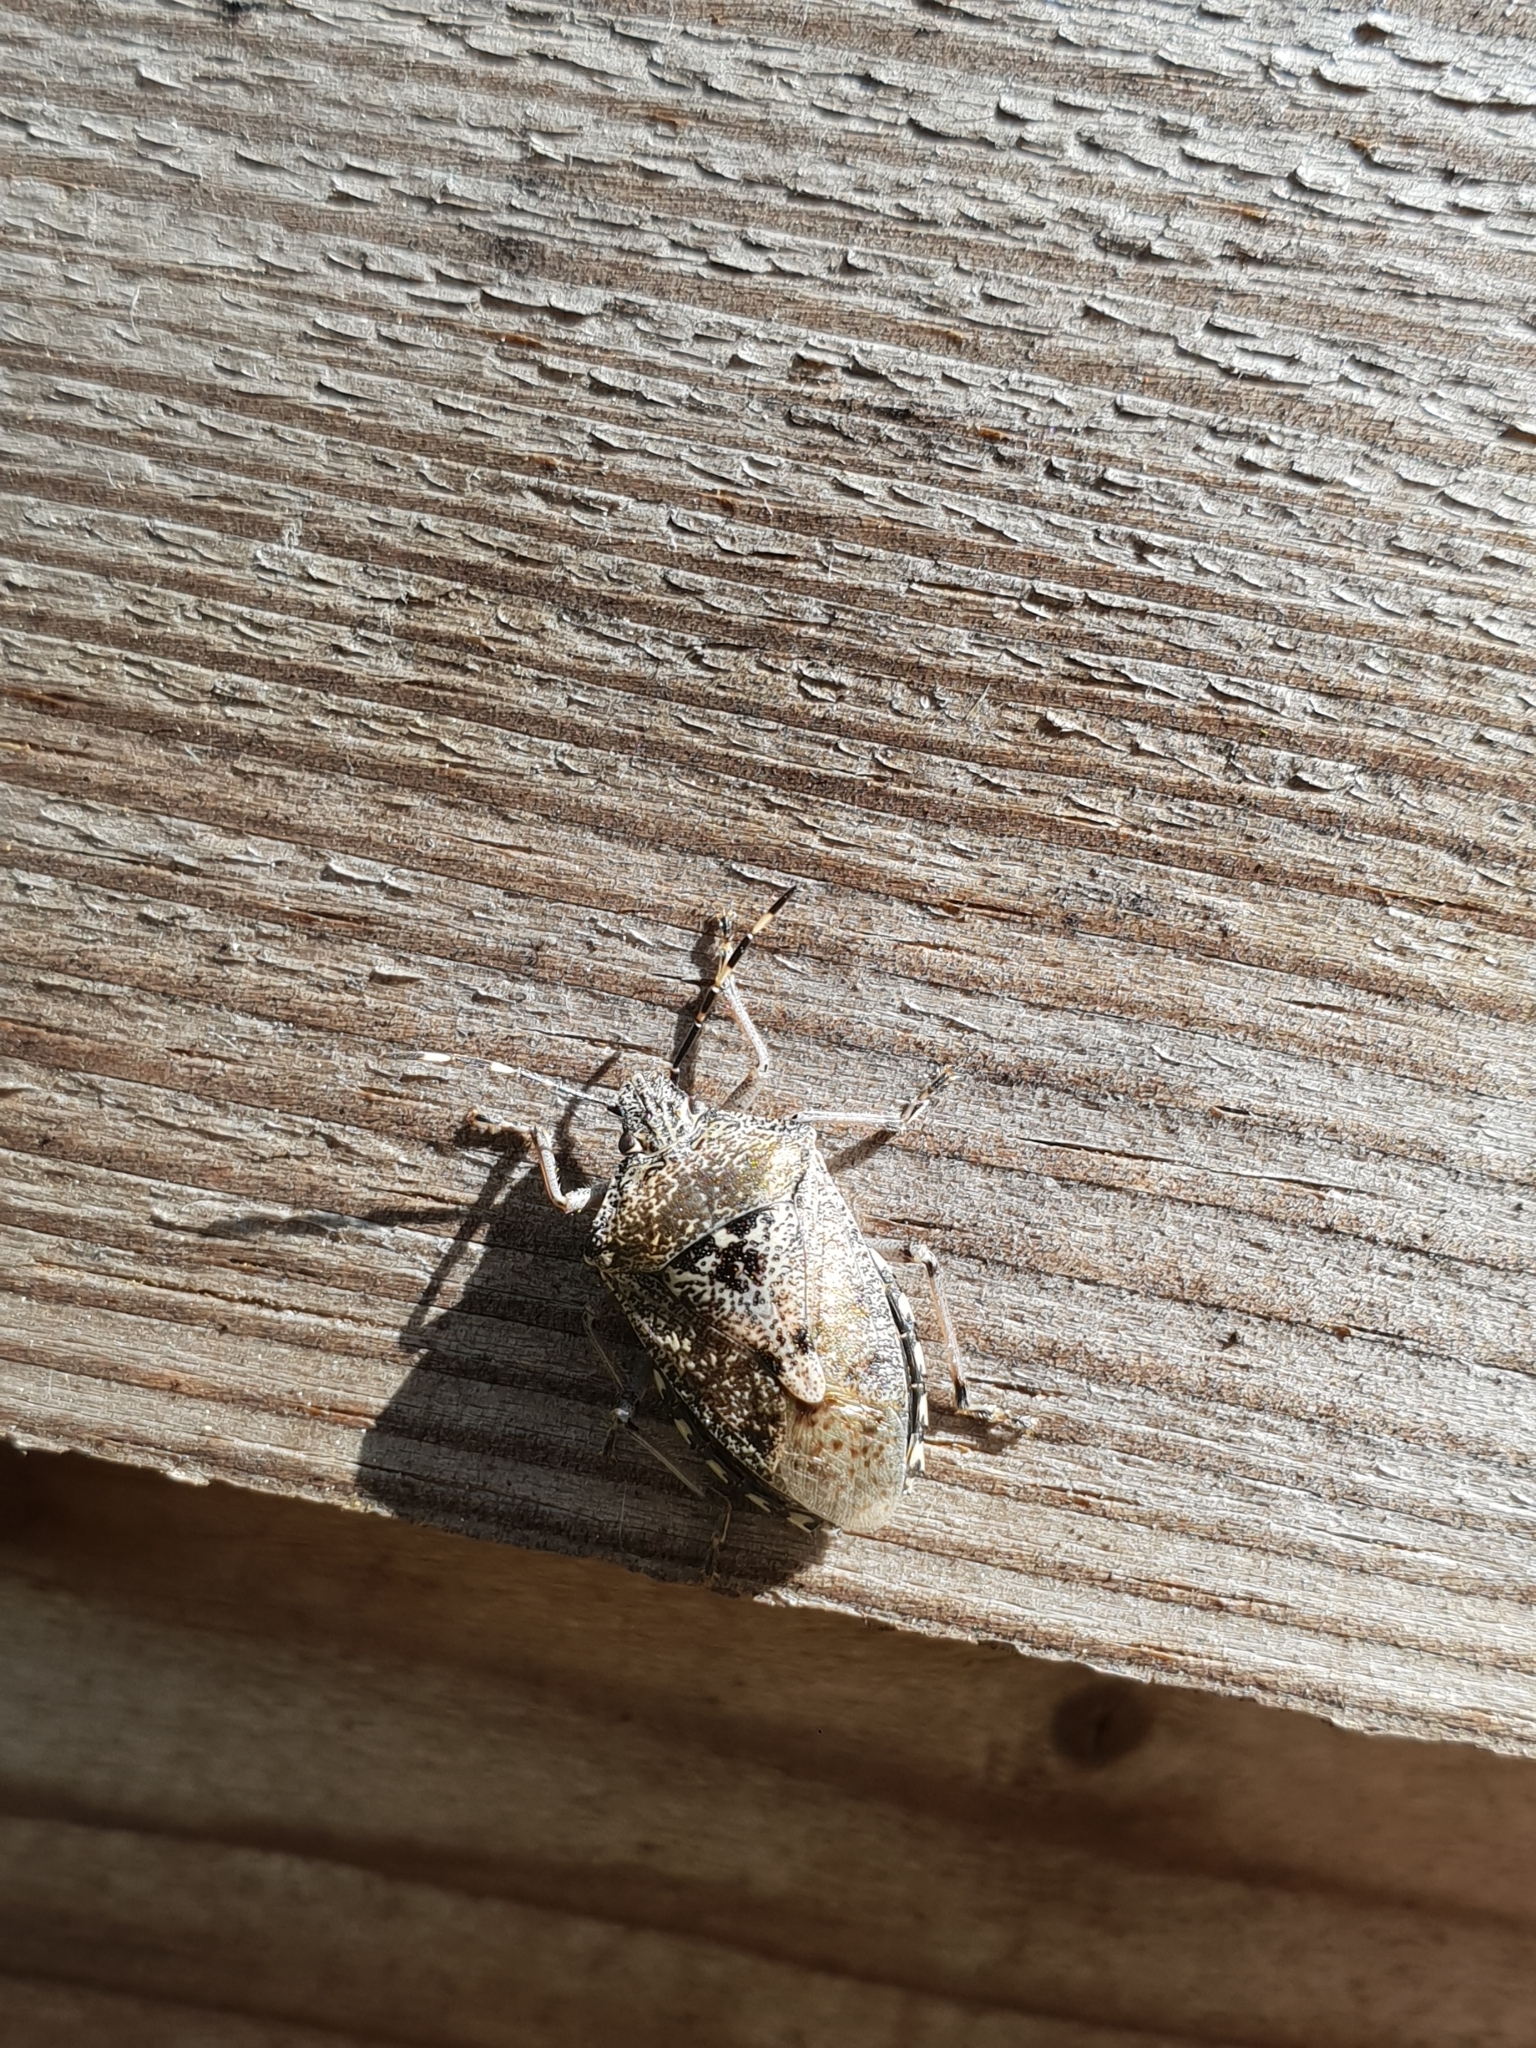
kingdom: Animalia
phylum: Arthropoda
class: Insecta
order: Hemiptera
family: Pentatomidae
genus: Rhaphigaster
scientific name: Rhaphigaster nebulosa
